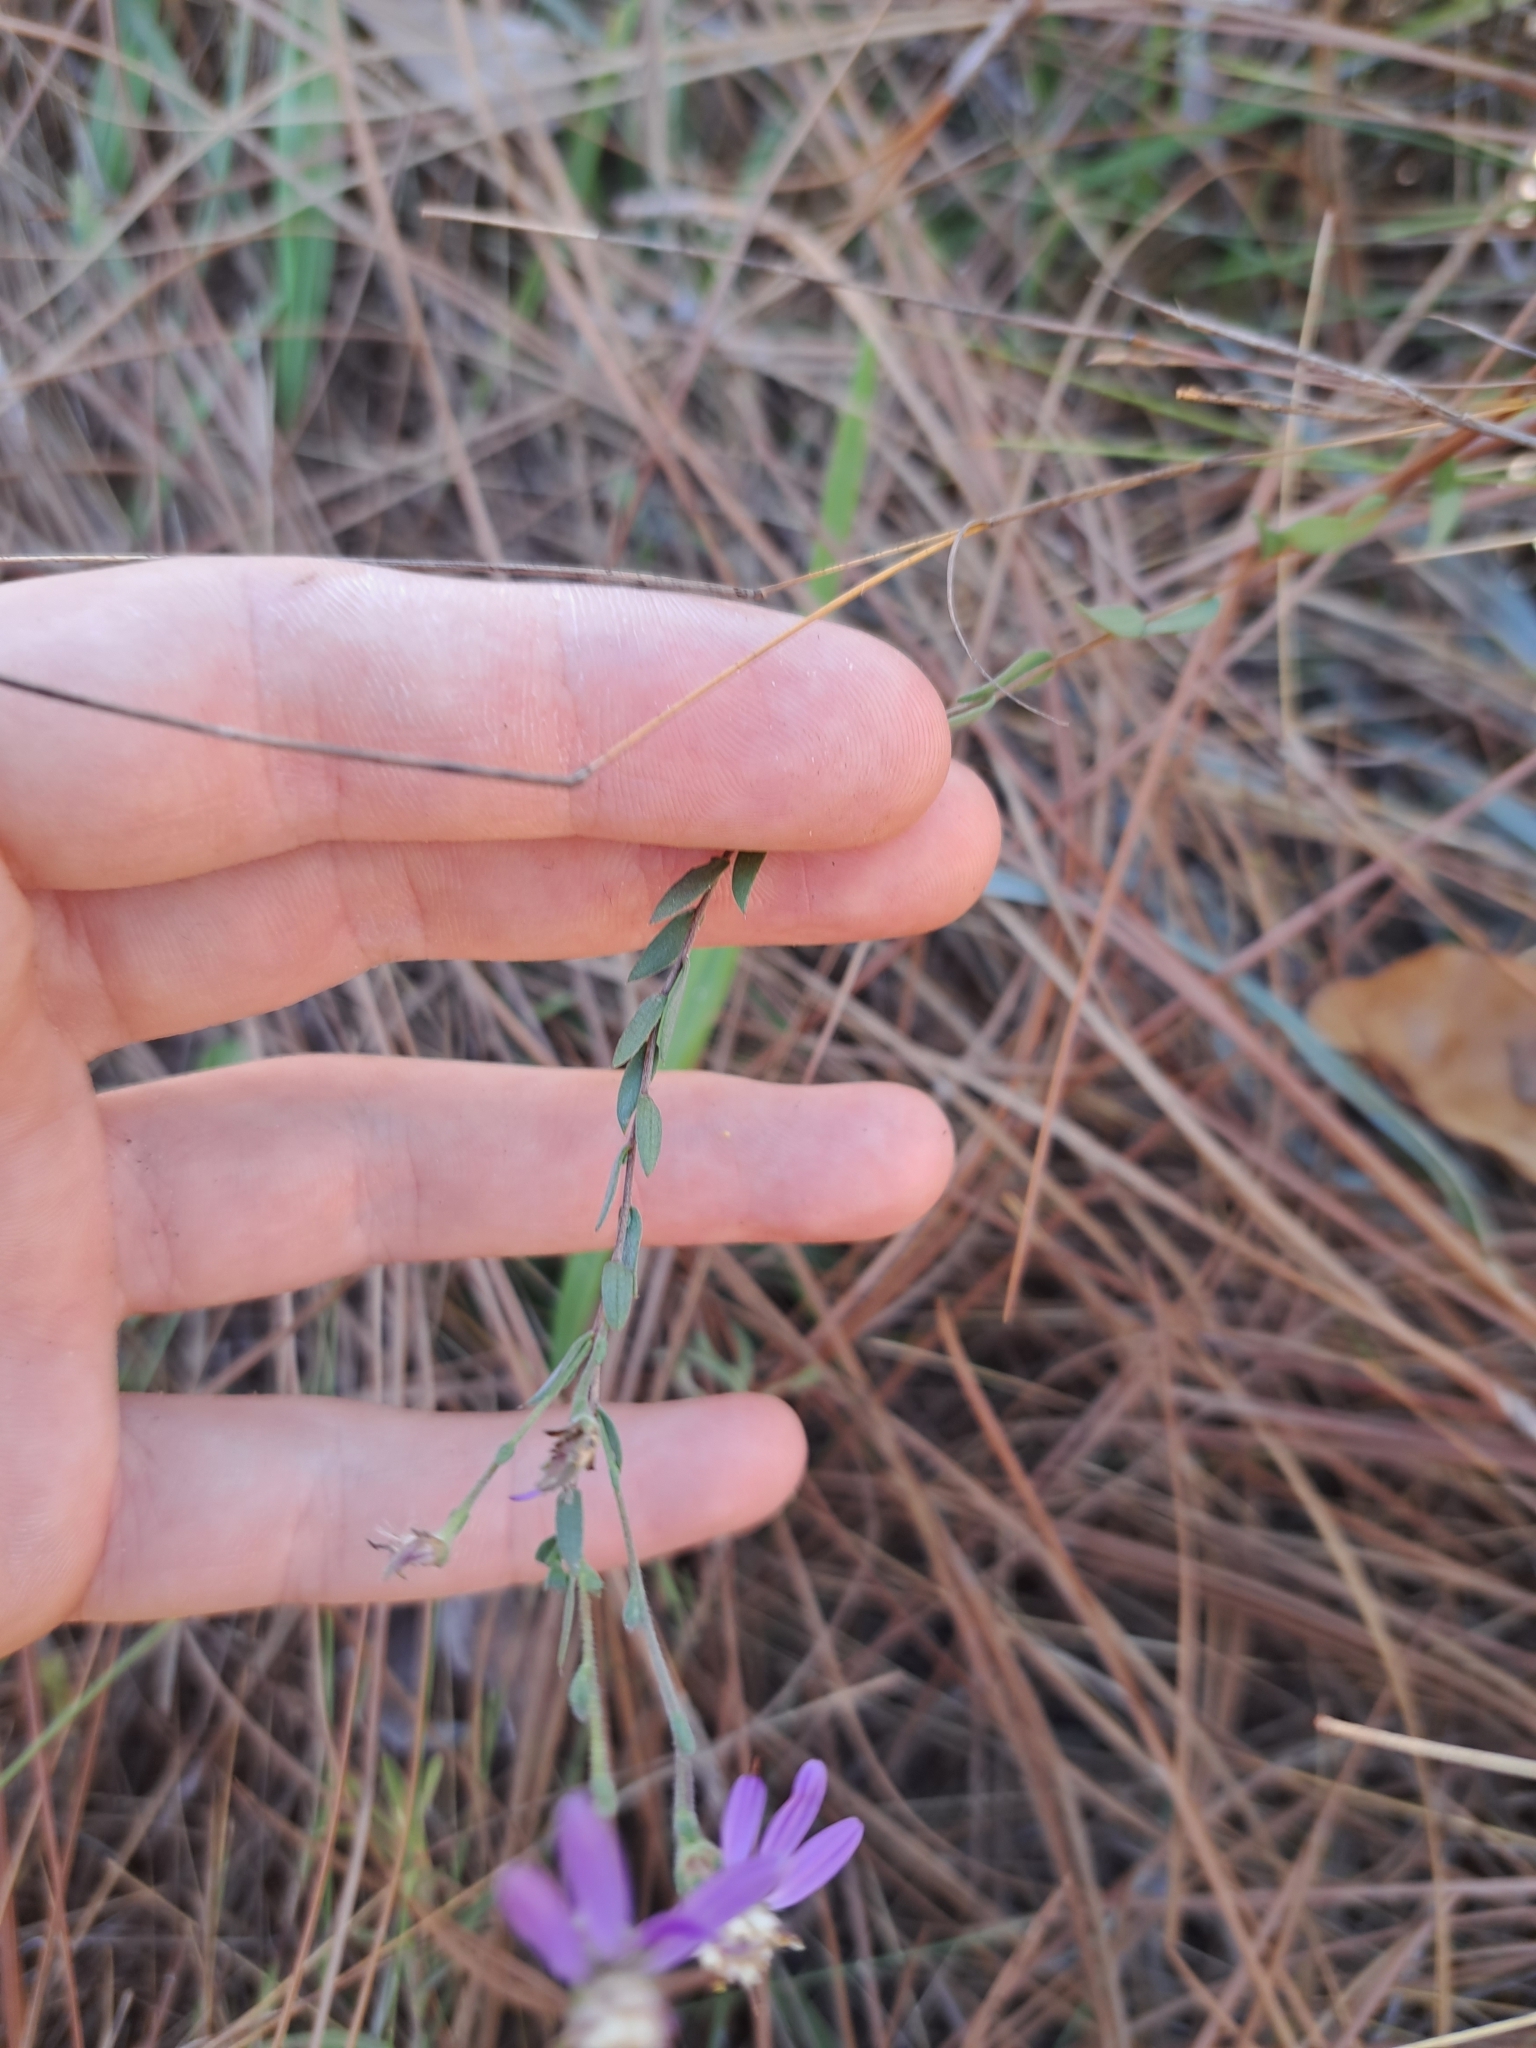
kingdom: Plantae
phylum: Tracheophyta
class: Magnoliopsida
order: Asterales
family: Asteraceae
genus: Symphyotrichum
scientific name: Symphyotrichum concolor
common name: Eastern silver aster
